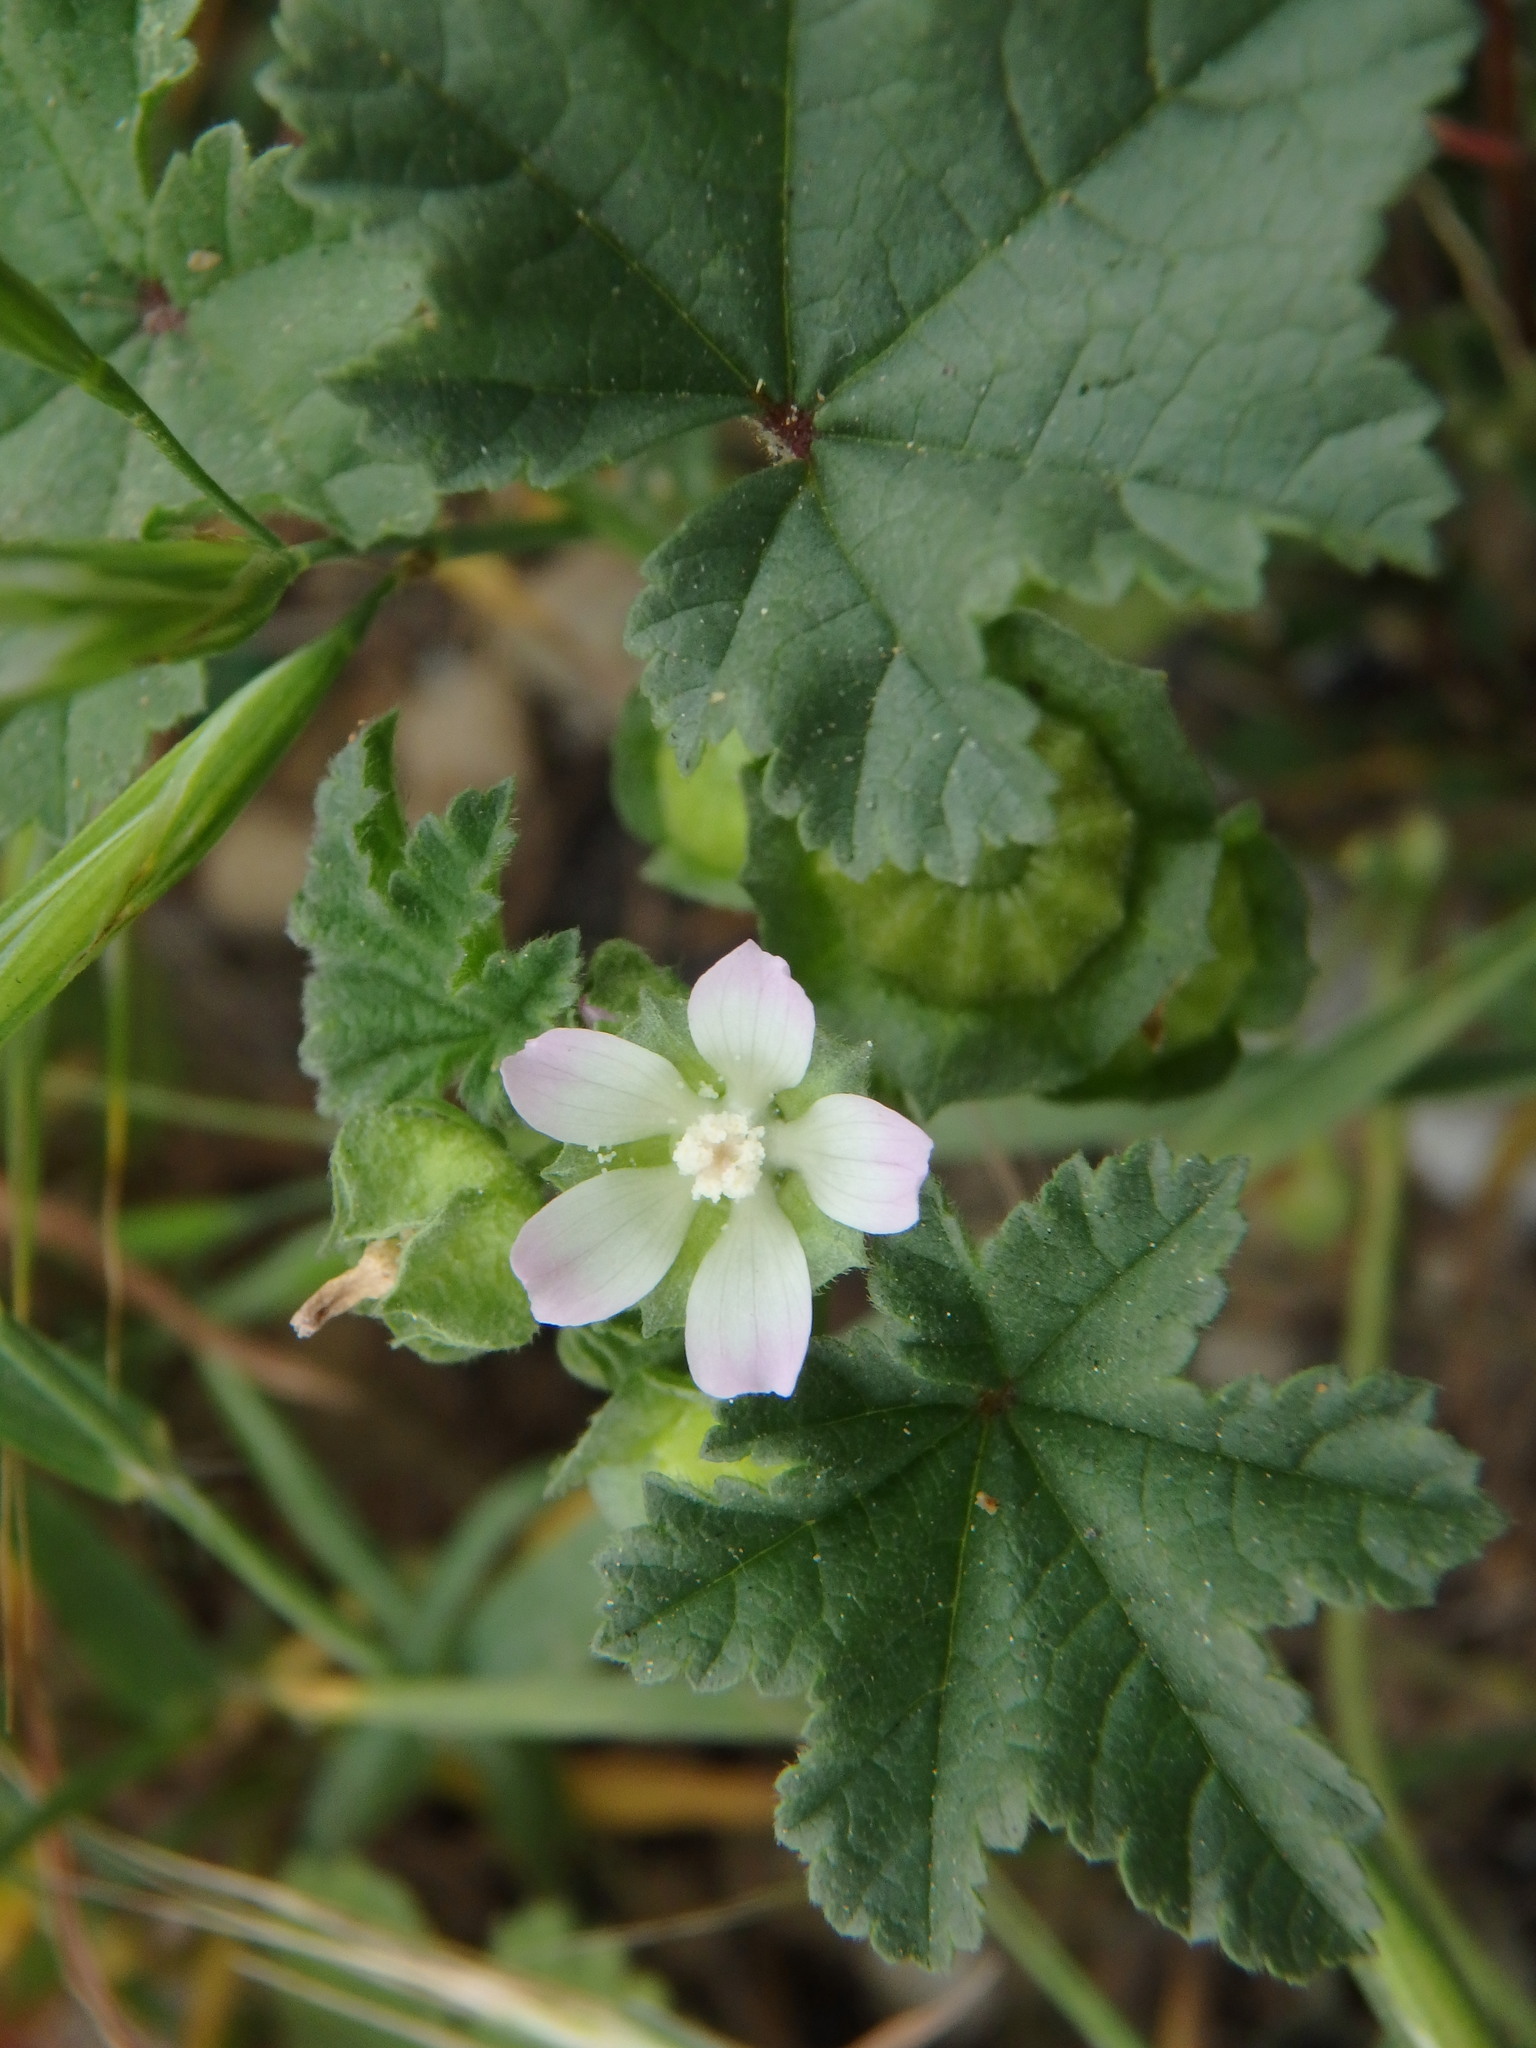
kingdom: Plantae
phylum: Tracheophyta
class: Magnoliopsida
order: Malvales
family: Malvaceae
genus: Malva
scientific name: Malva parviflora
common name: Least mallow
